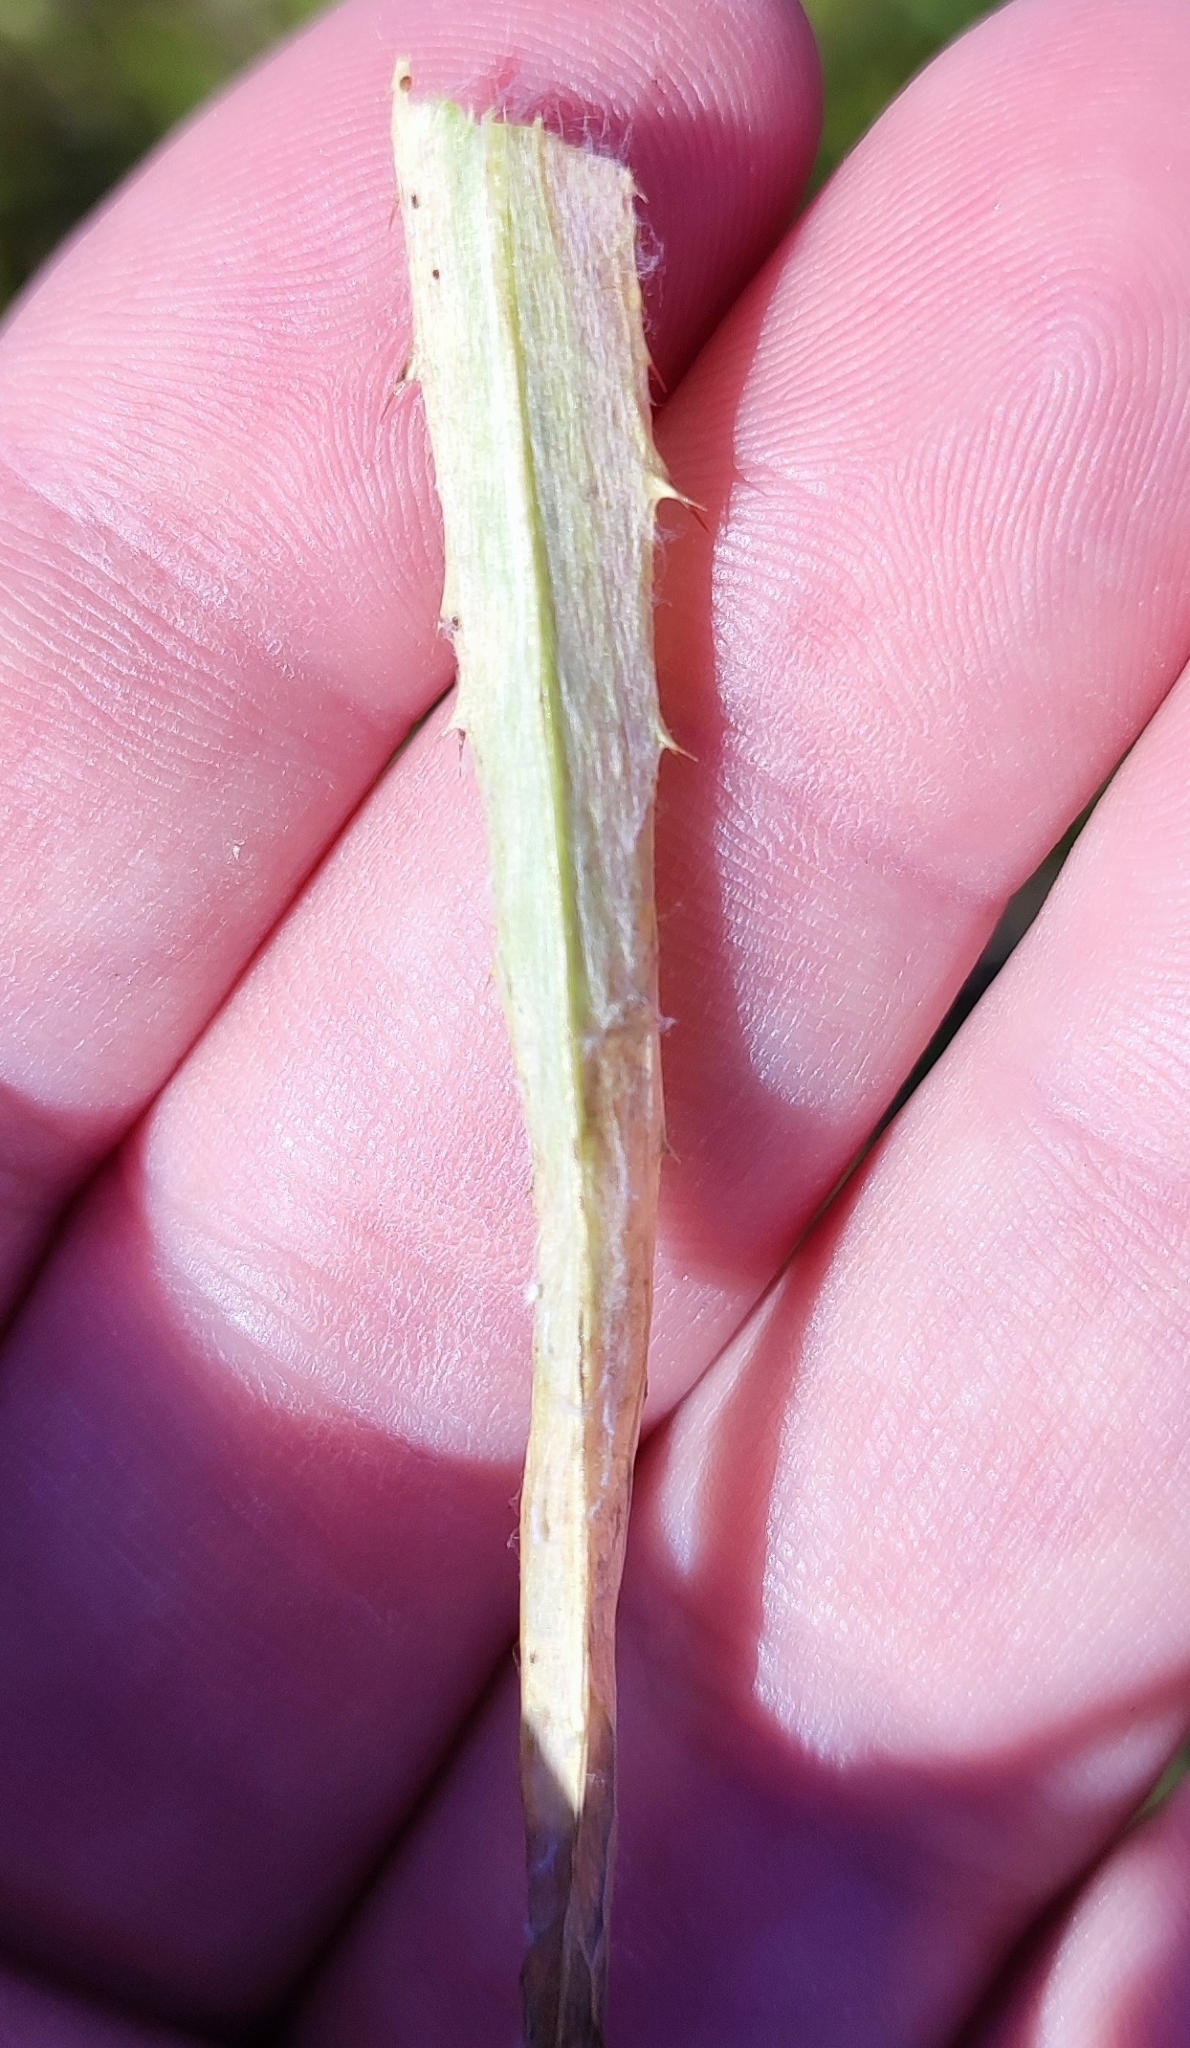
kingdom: Plantae
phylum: Tracheophyta
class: Magnoliopsida
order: Asterales
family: Asteraceae
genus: Carlina
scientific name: Carlina biebersteinii
